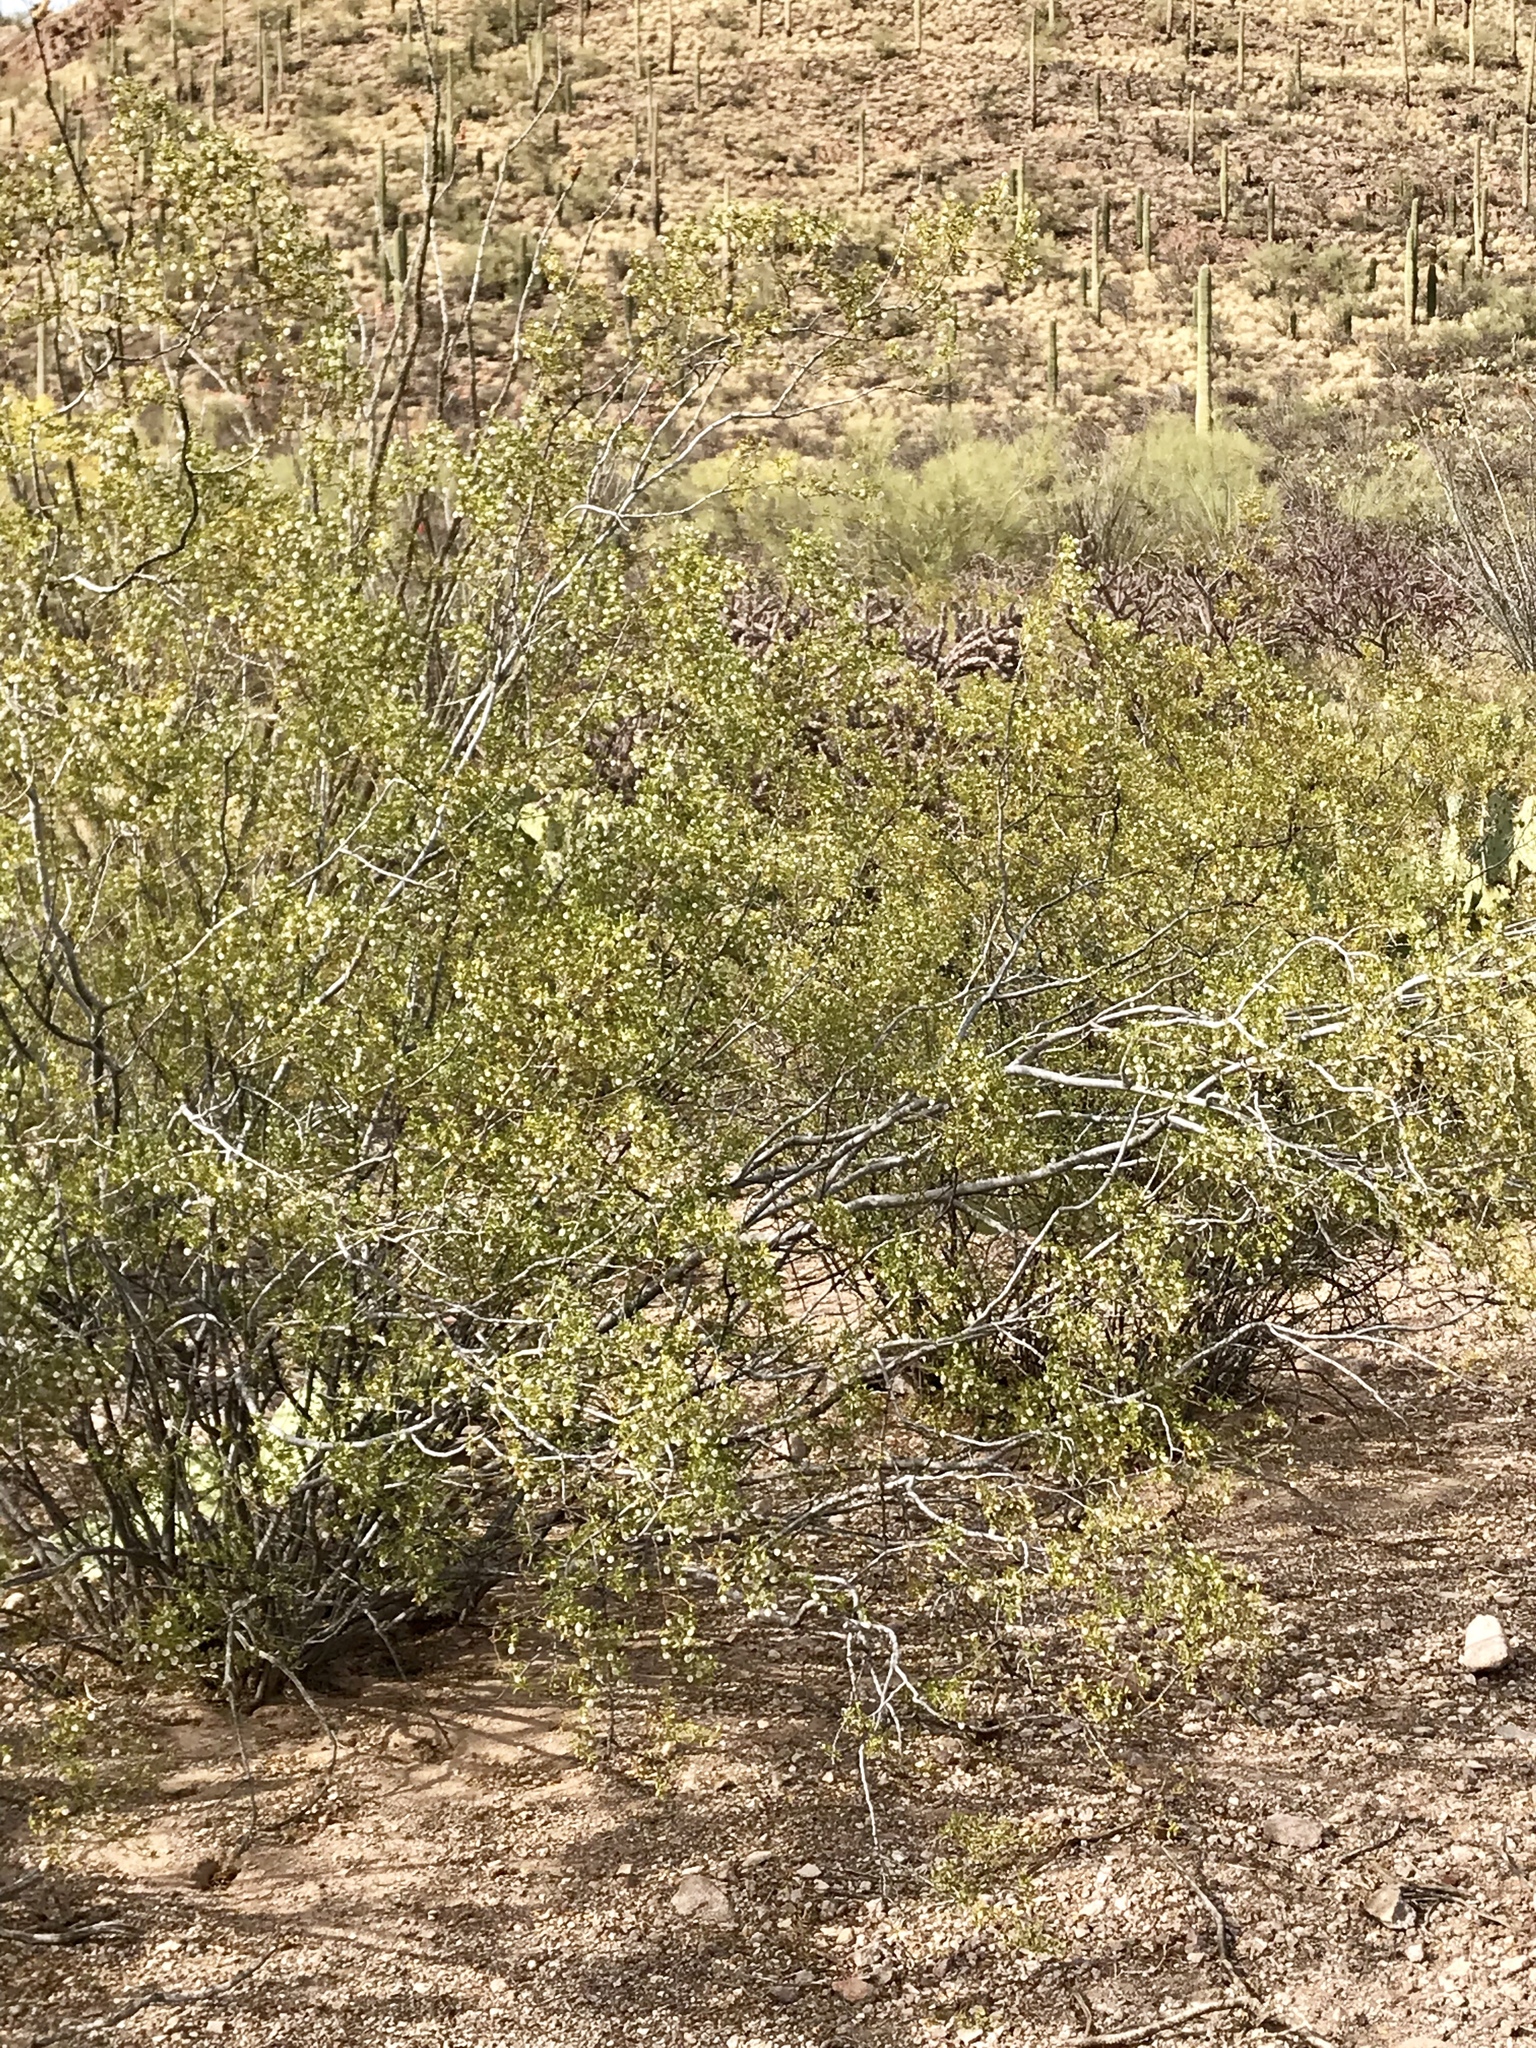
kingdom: Plantae
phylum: Tracheophyta
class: Magnoliopsida
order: Zygophyllales
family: Zygophyllaceae
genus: Larrea
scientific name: Larrea tridentata
